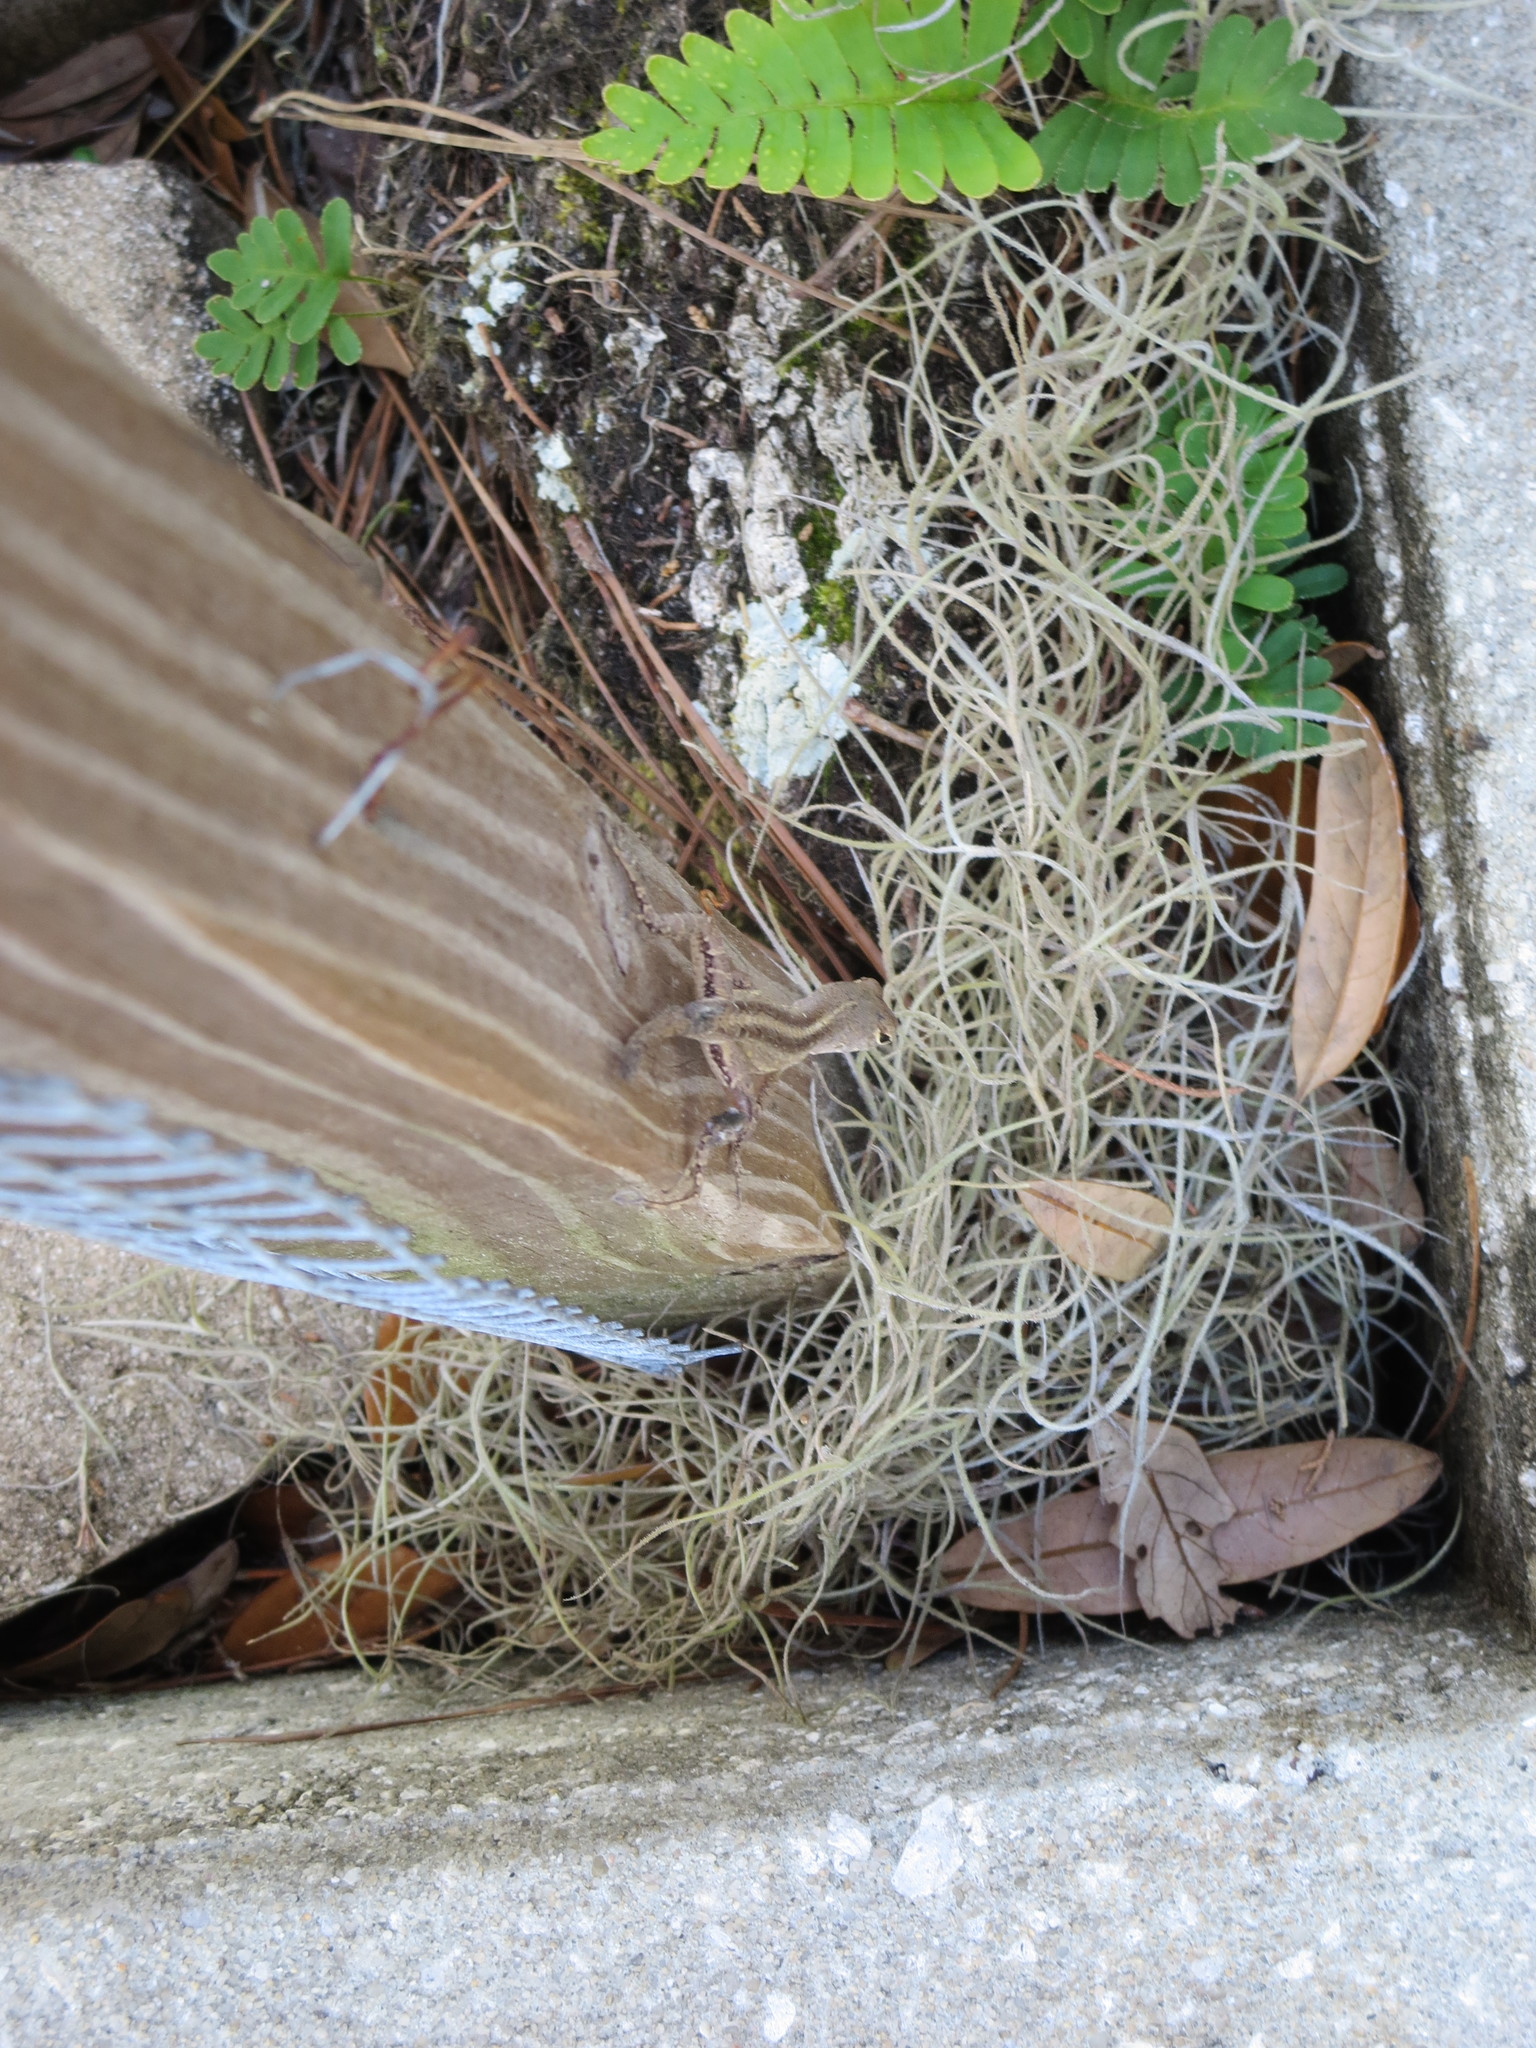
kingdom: Animalia
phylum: Chordata
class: Squamata
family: Dactyloidae
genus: Anolis
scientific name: Anolis sagrei
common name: Brown anole
